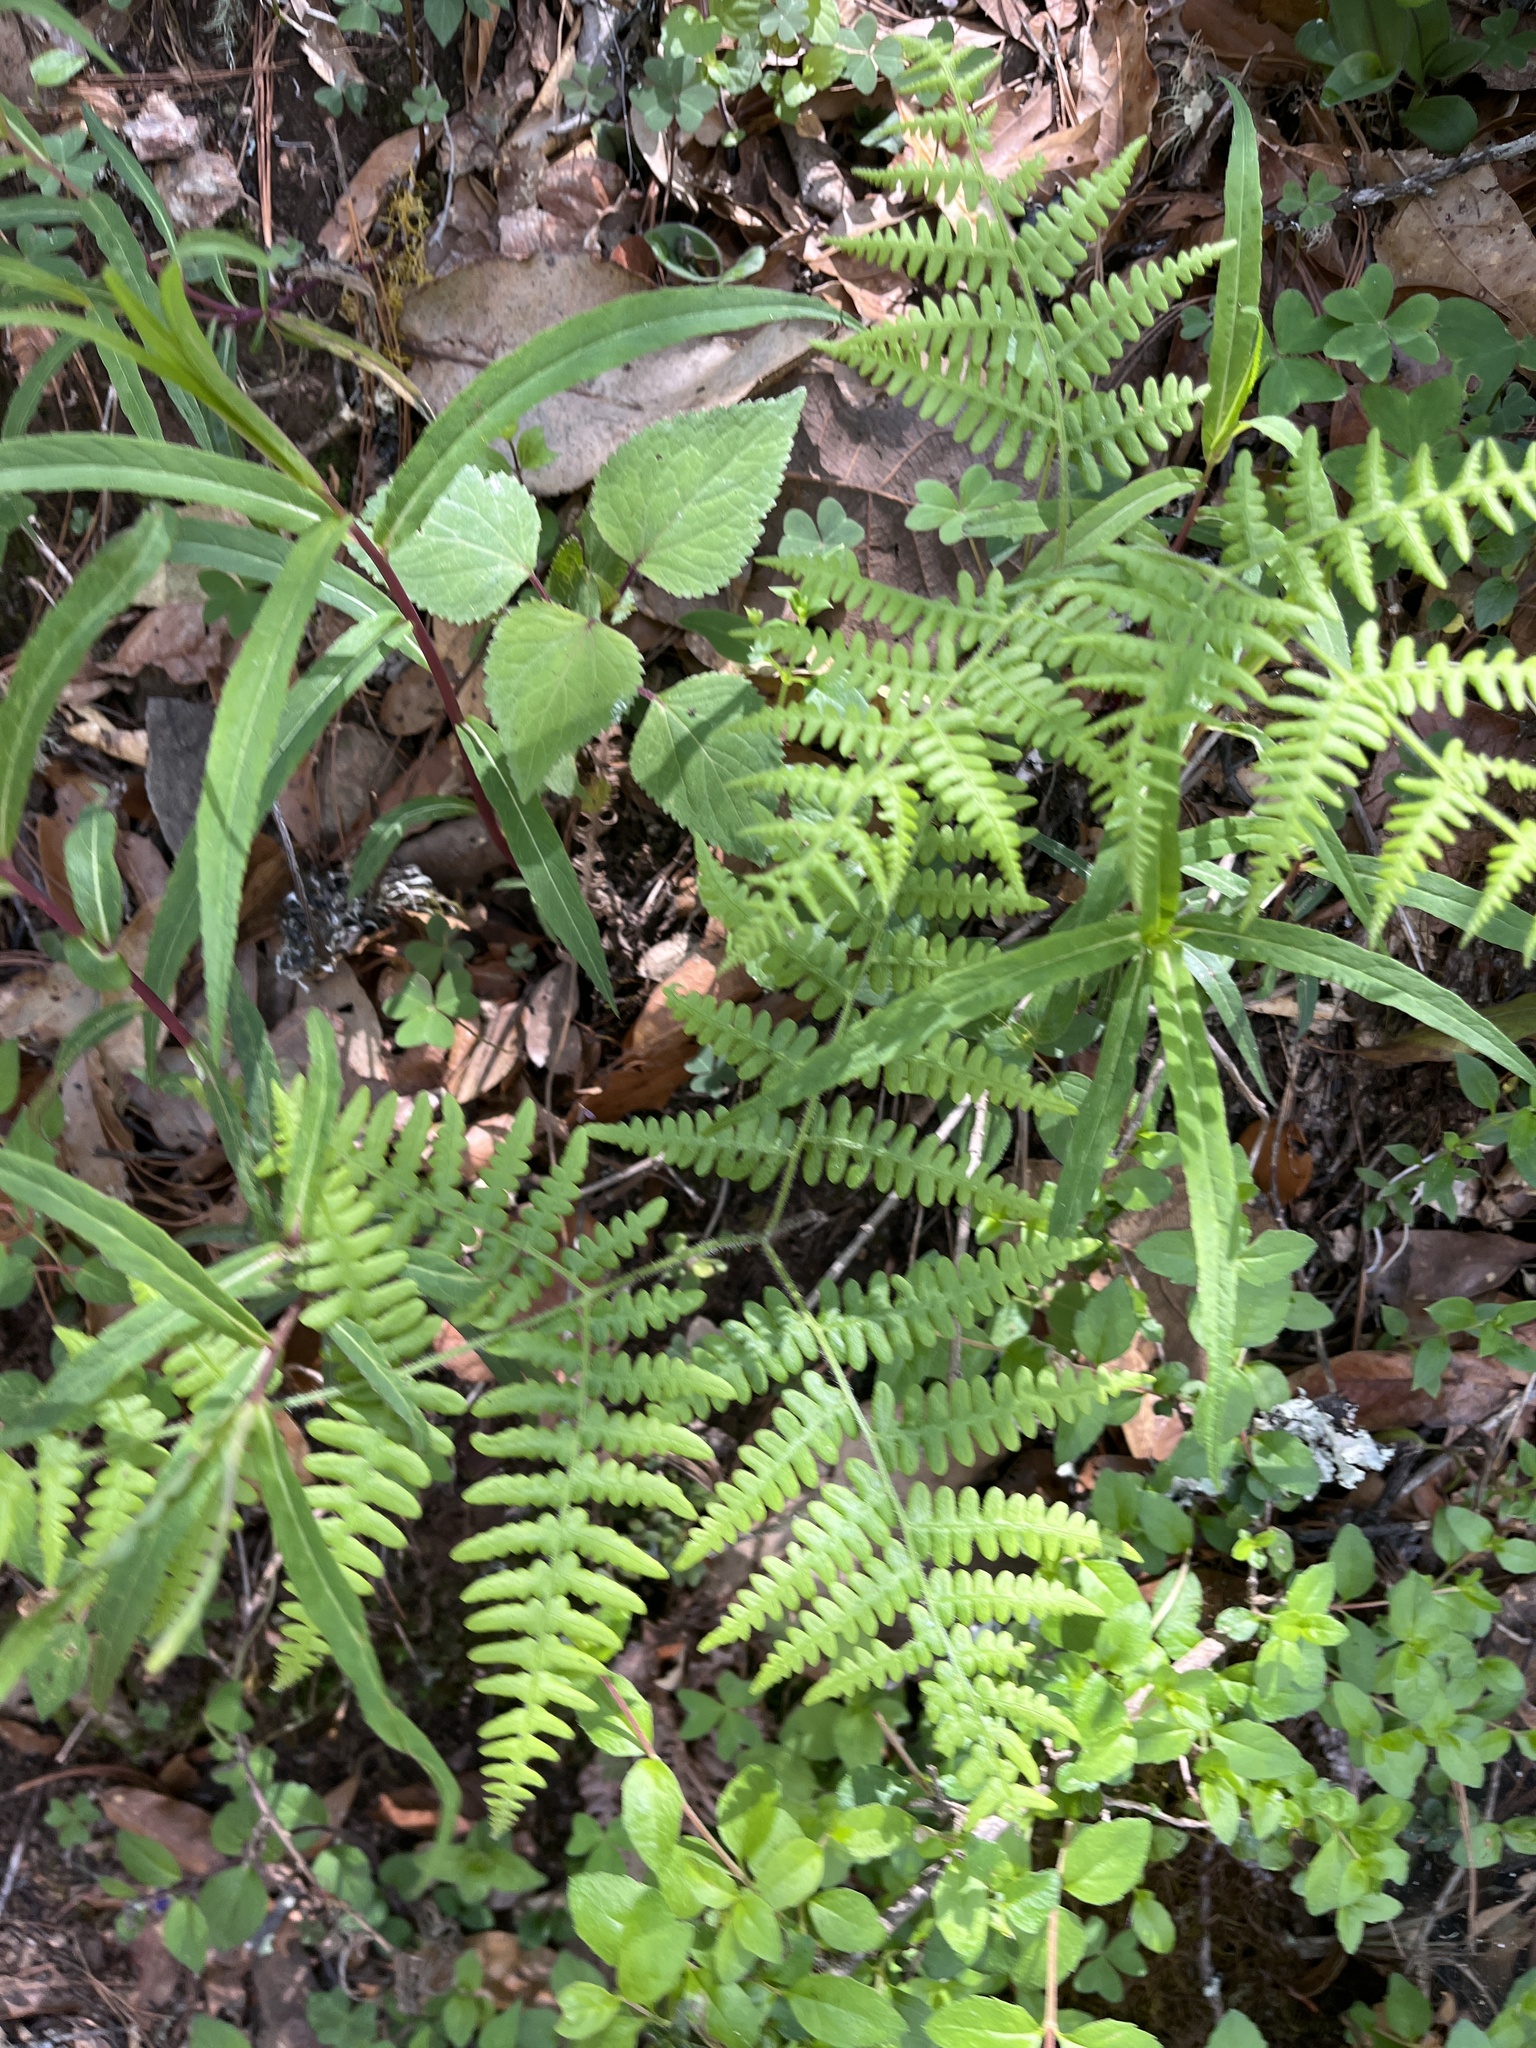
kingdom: Plantae
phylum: Tracheophyta
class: Polypodiopsida
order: Polypodiales
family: Dennstaedtiaceae
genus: Pteridium
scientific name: Pteridium aquilinum
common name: Bracken
